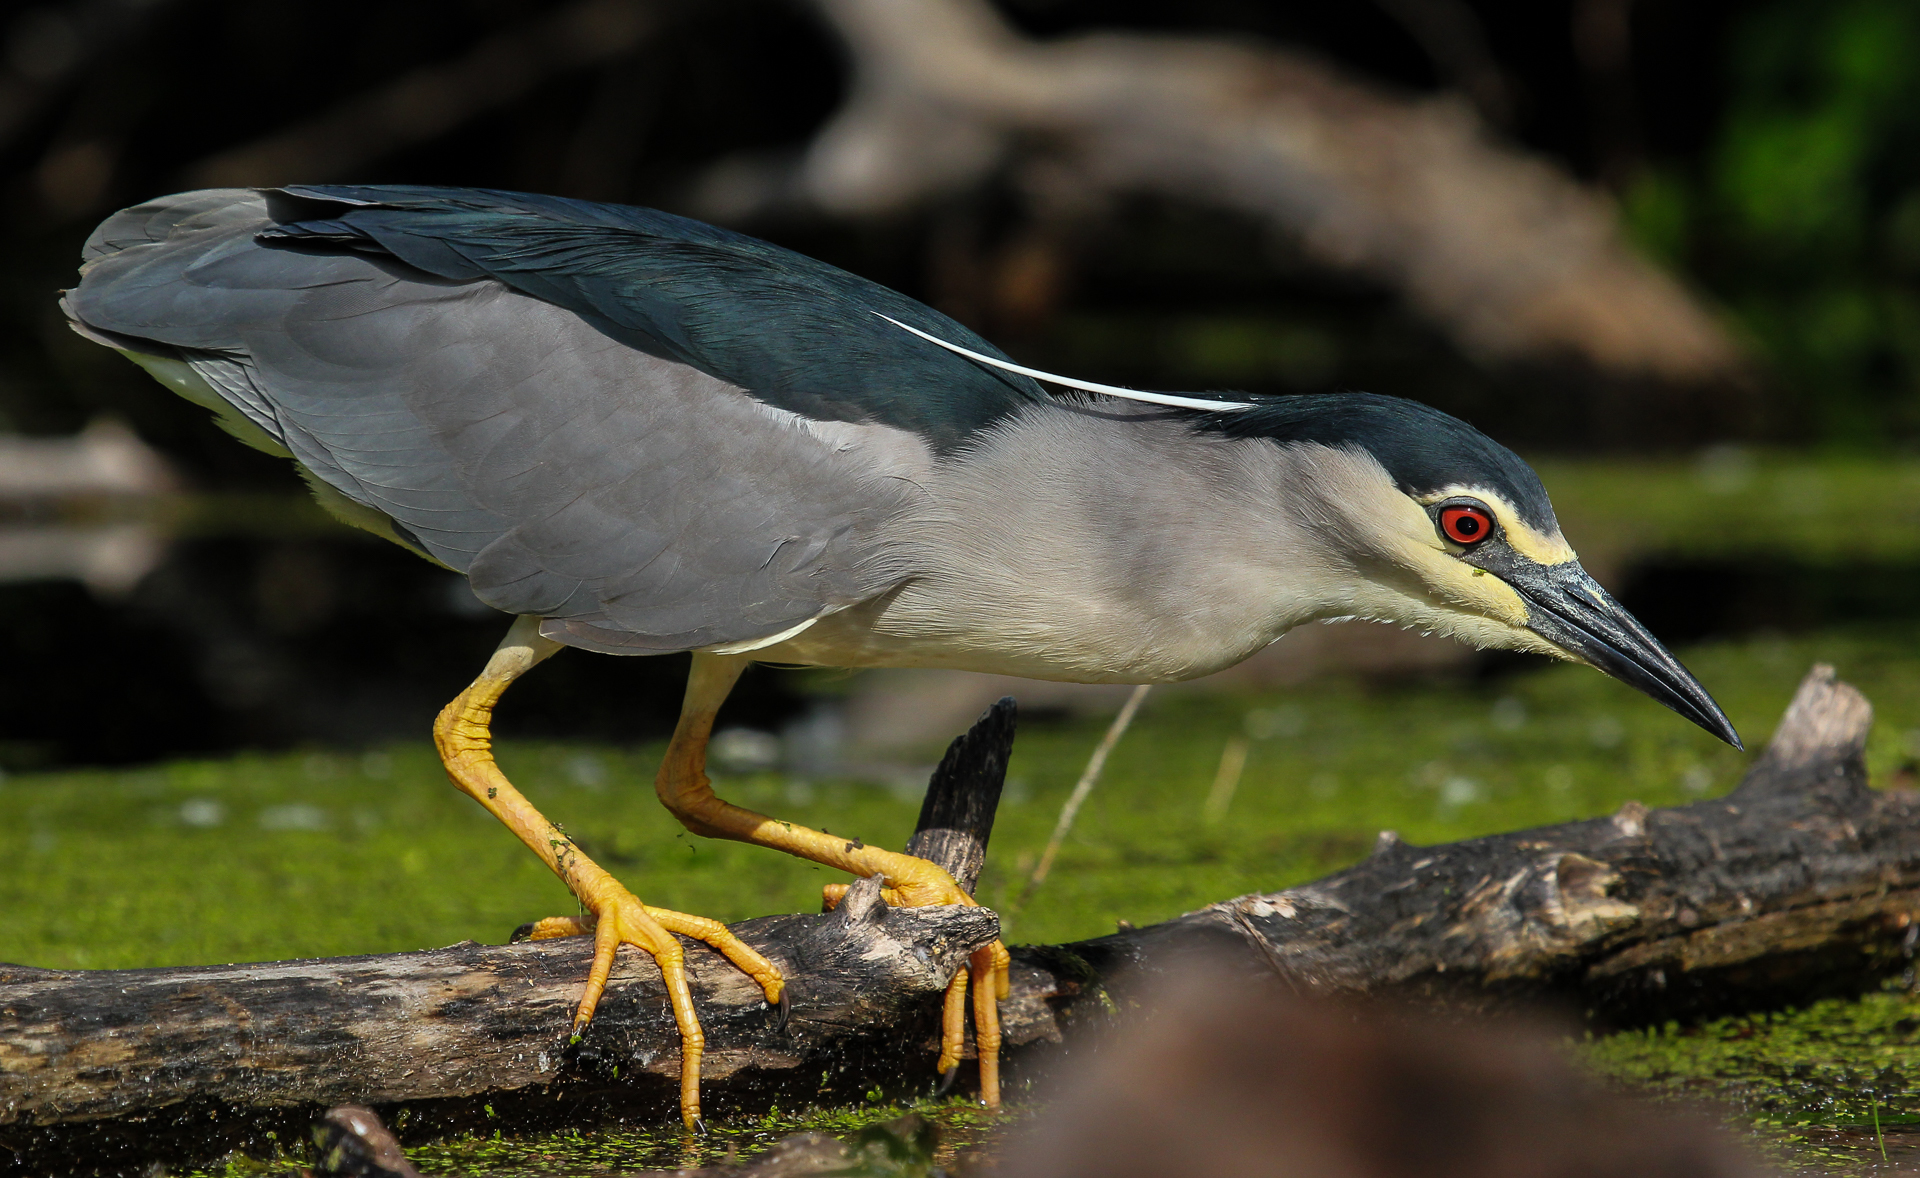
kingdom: Animalia
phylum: Chordata
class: Aves
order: Pelecaniformes
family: Ardeidae
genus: Nycticorax
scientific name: Nycticorax nycticorax
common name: Black-crowned night heron
